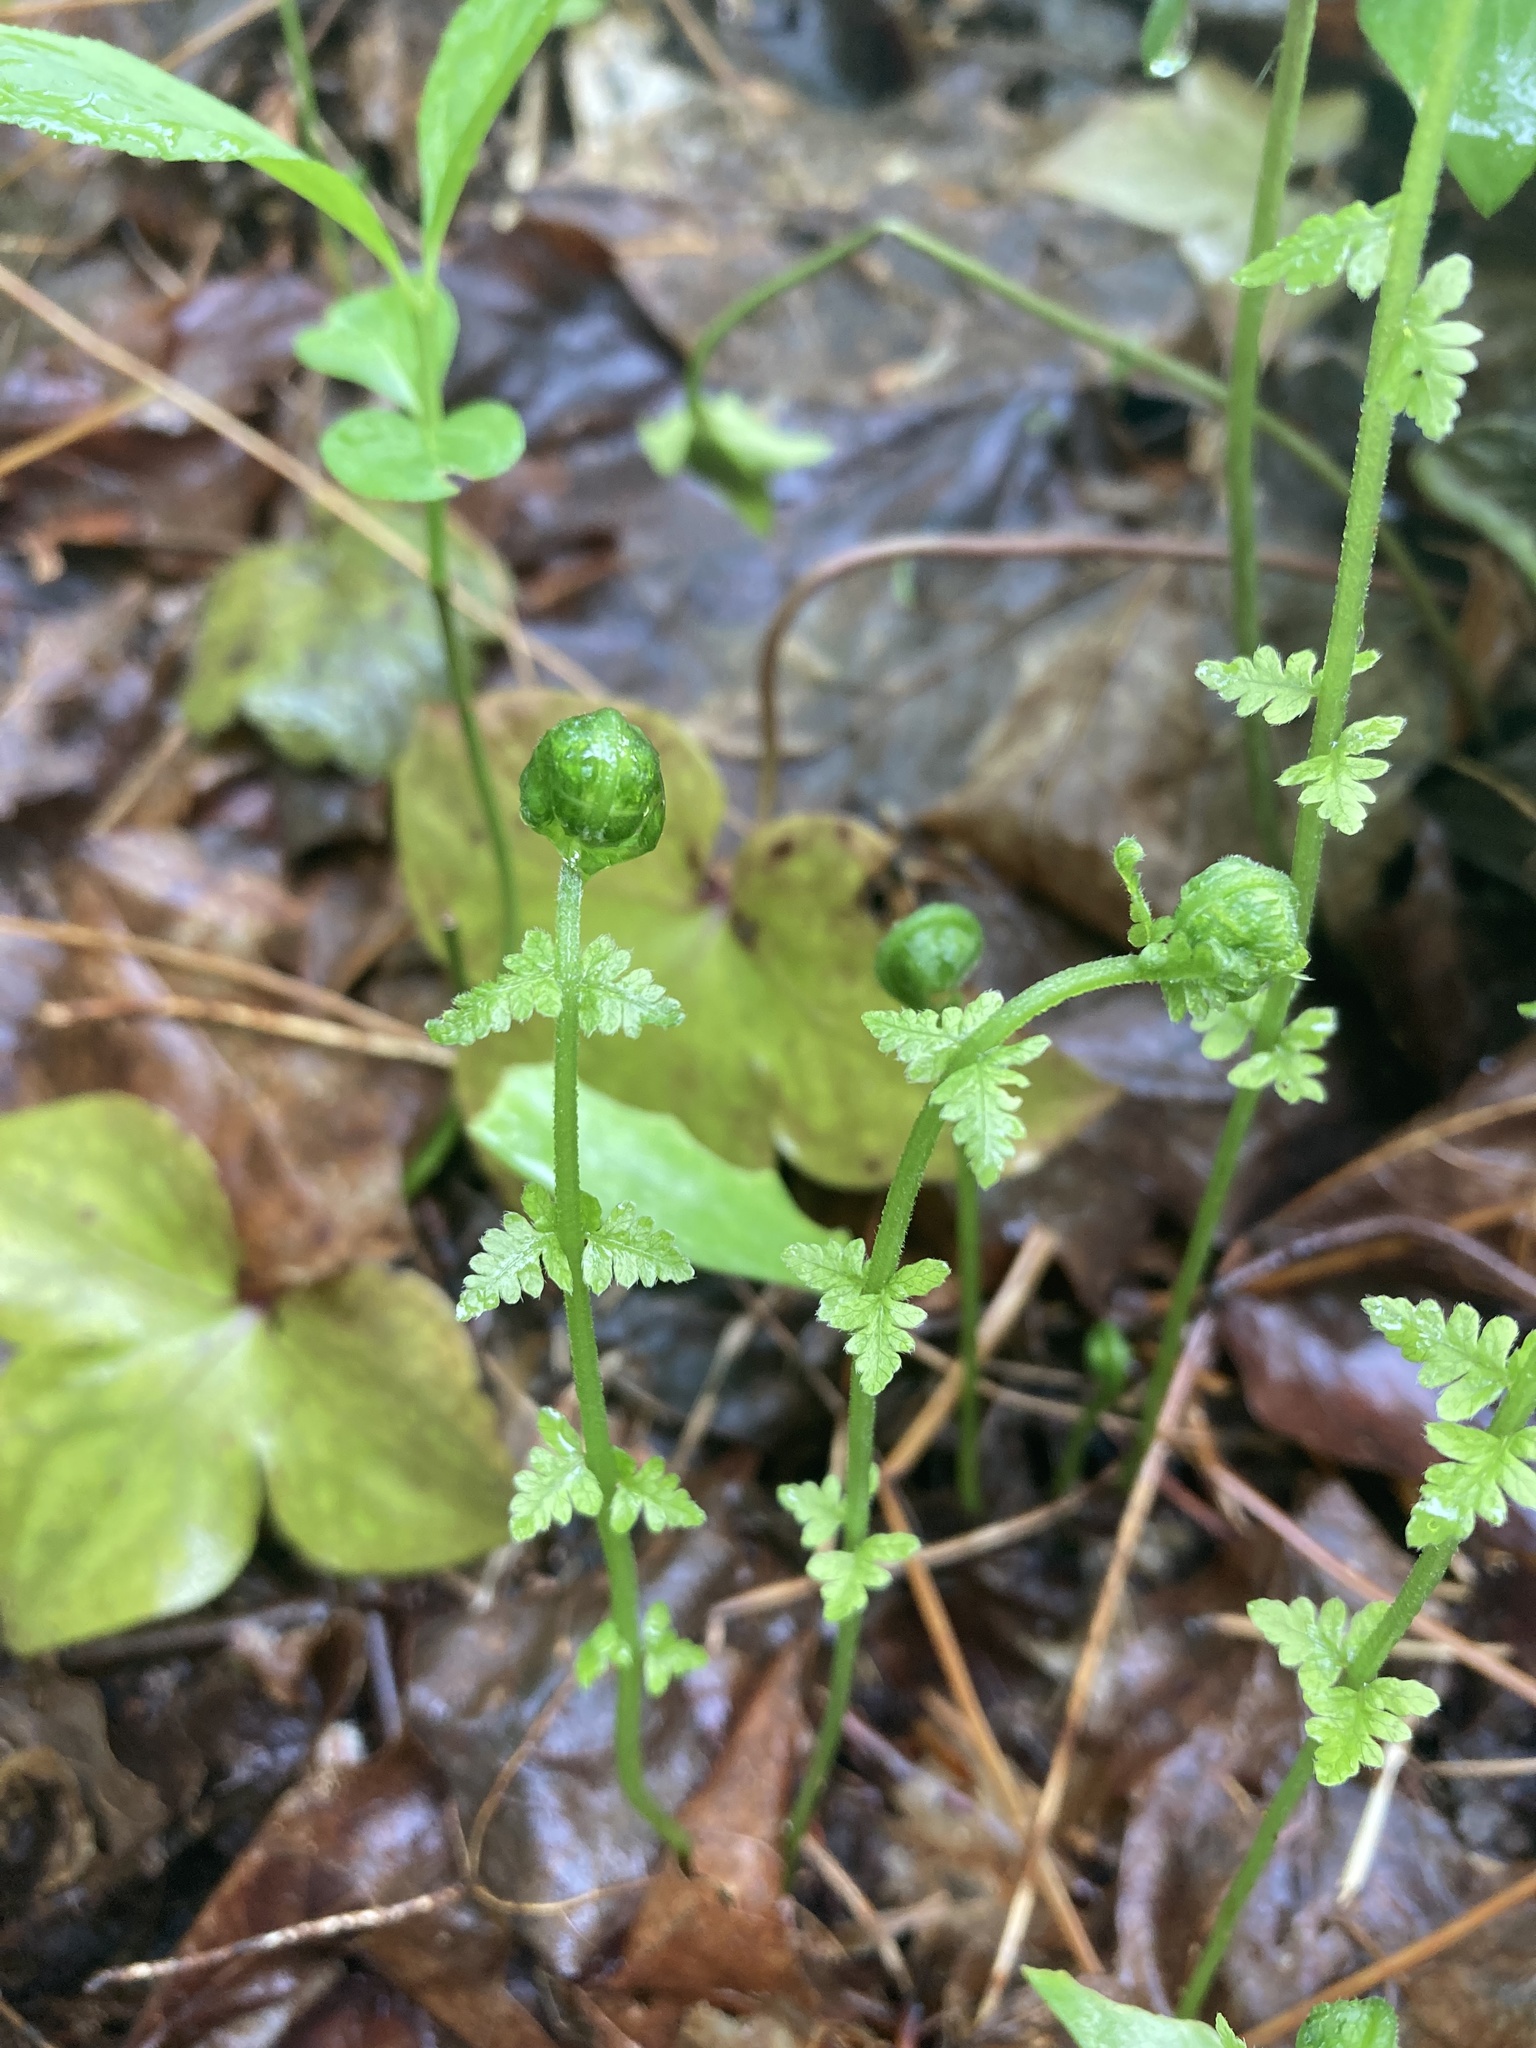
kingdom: Plantae
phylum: Tracheophyta
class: Polypodiopsida
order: Polypodiales
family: Thelypteridaceae
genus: Amauropelta
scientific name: Amauropelta noveboracensis
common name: New york fern
